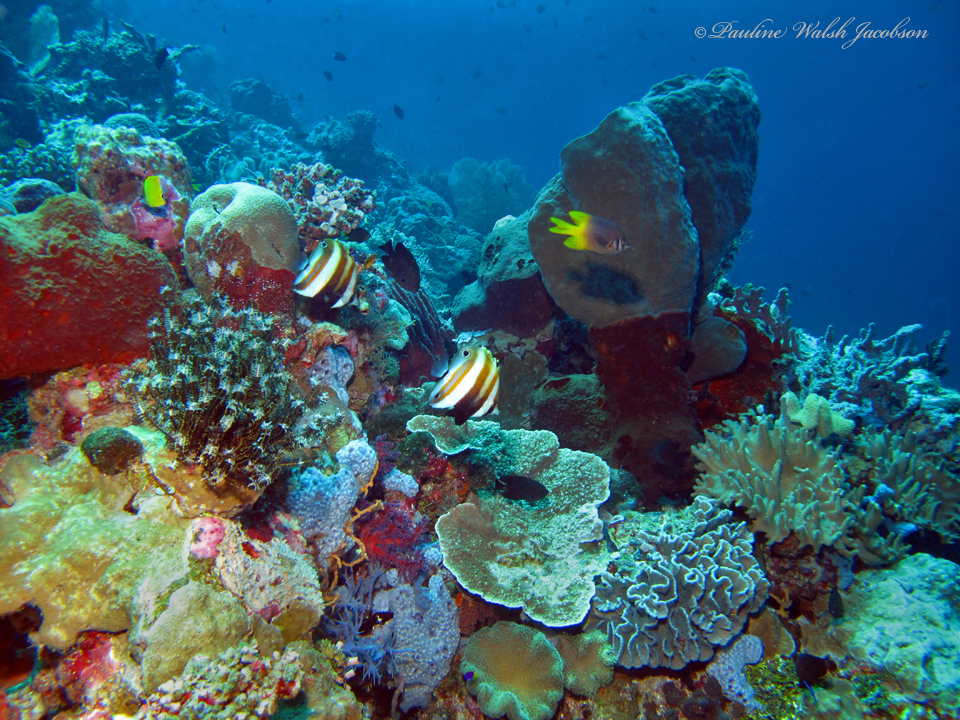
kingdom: Animalia
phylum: Chordata
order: Perciformes
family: Chaetodontidae
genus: Coradion
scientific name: Coradion melanopus
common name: Two-eyed coralfish
